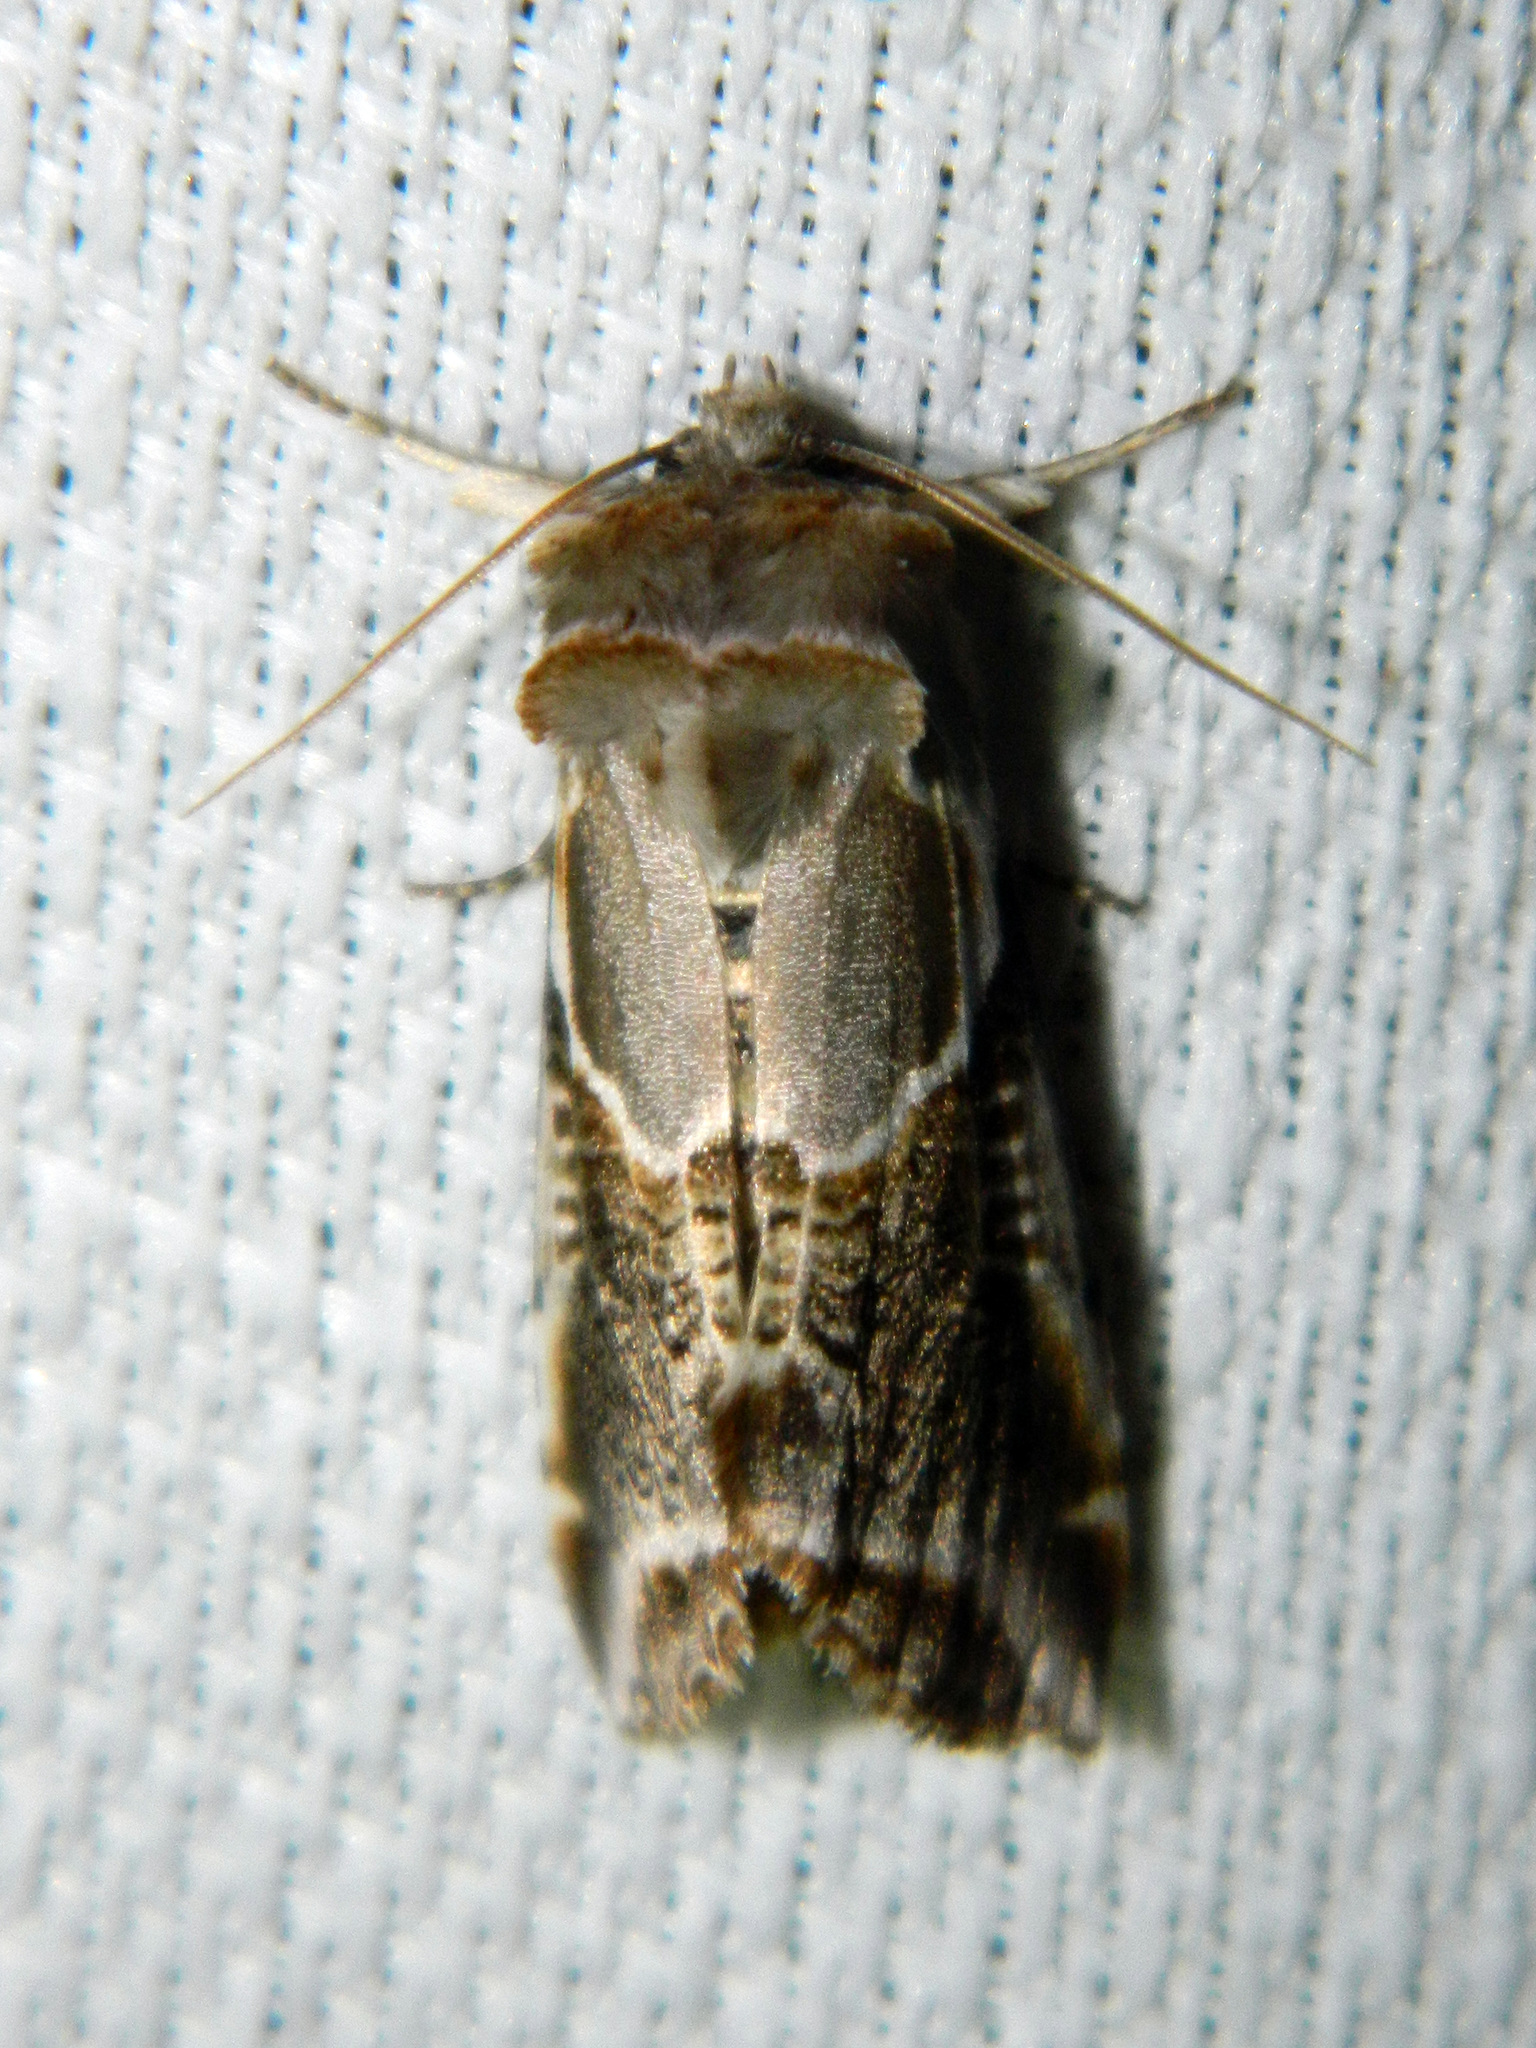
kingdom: Animalia
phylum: Arthropoda
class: Insecta
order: Lepidoptera
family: Drepanidae
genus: Habrosyne
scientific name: Habrosyne scripta
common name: Lettered habrosyne moth
